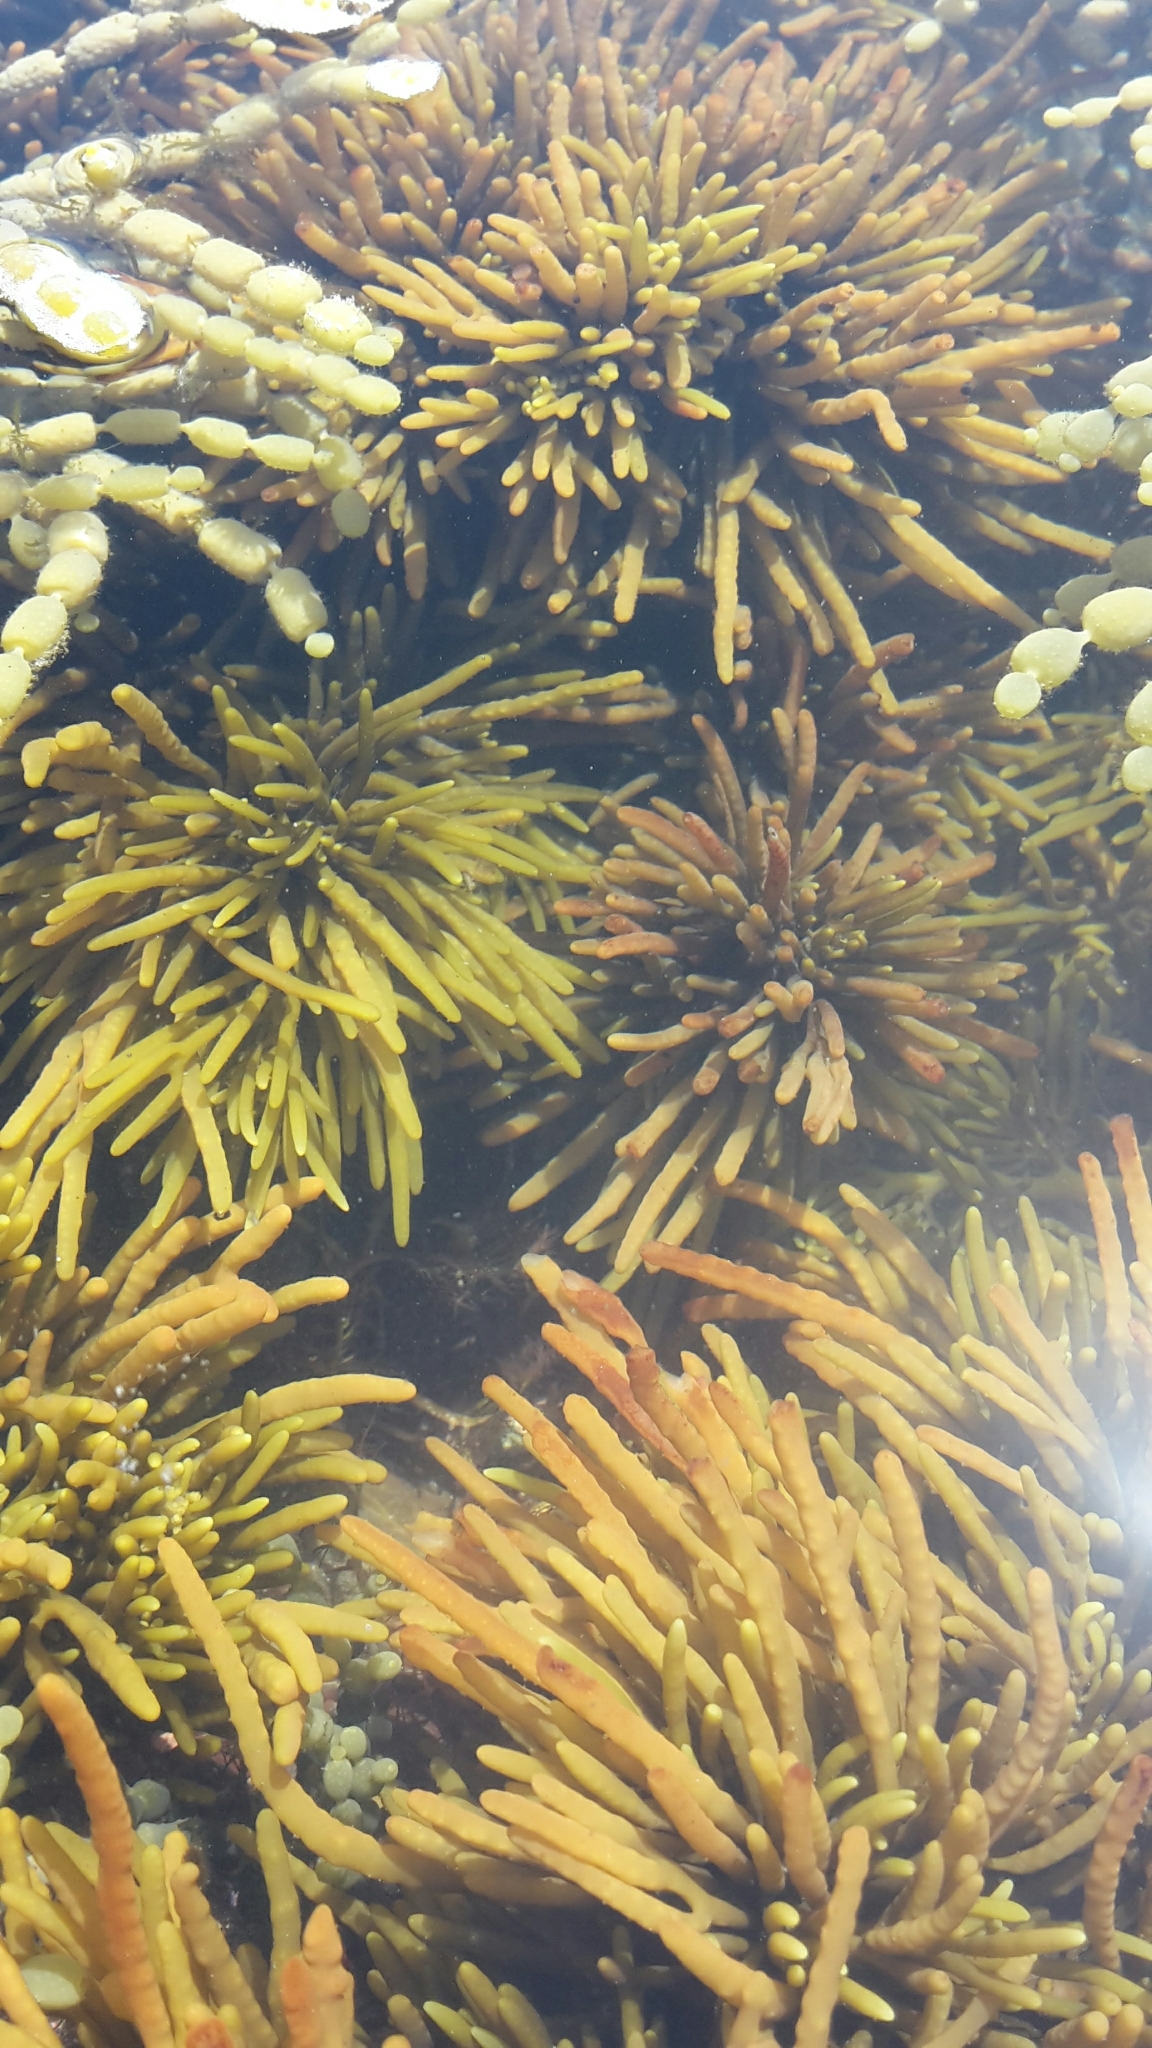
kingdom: Chromista
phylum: Ochrophyta
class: Phaeophyceae
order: Fucales
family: Sargassaceae
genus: Cystophora
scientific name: Cystophora torulosa
